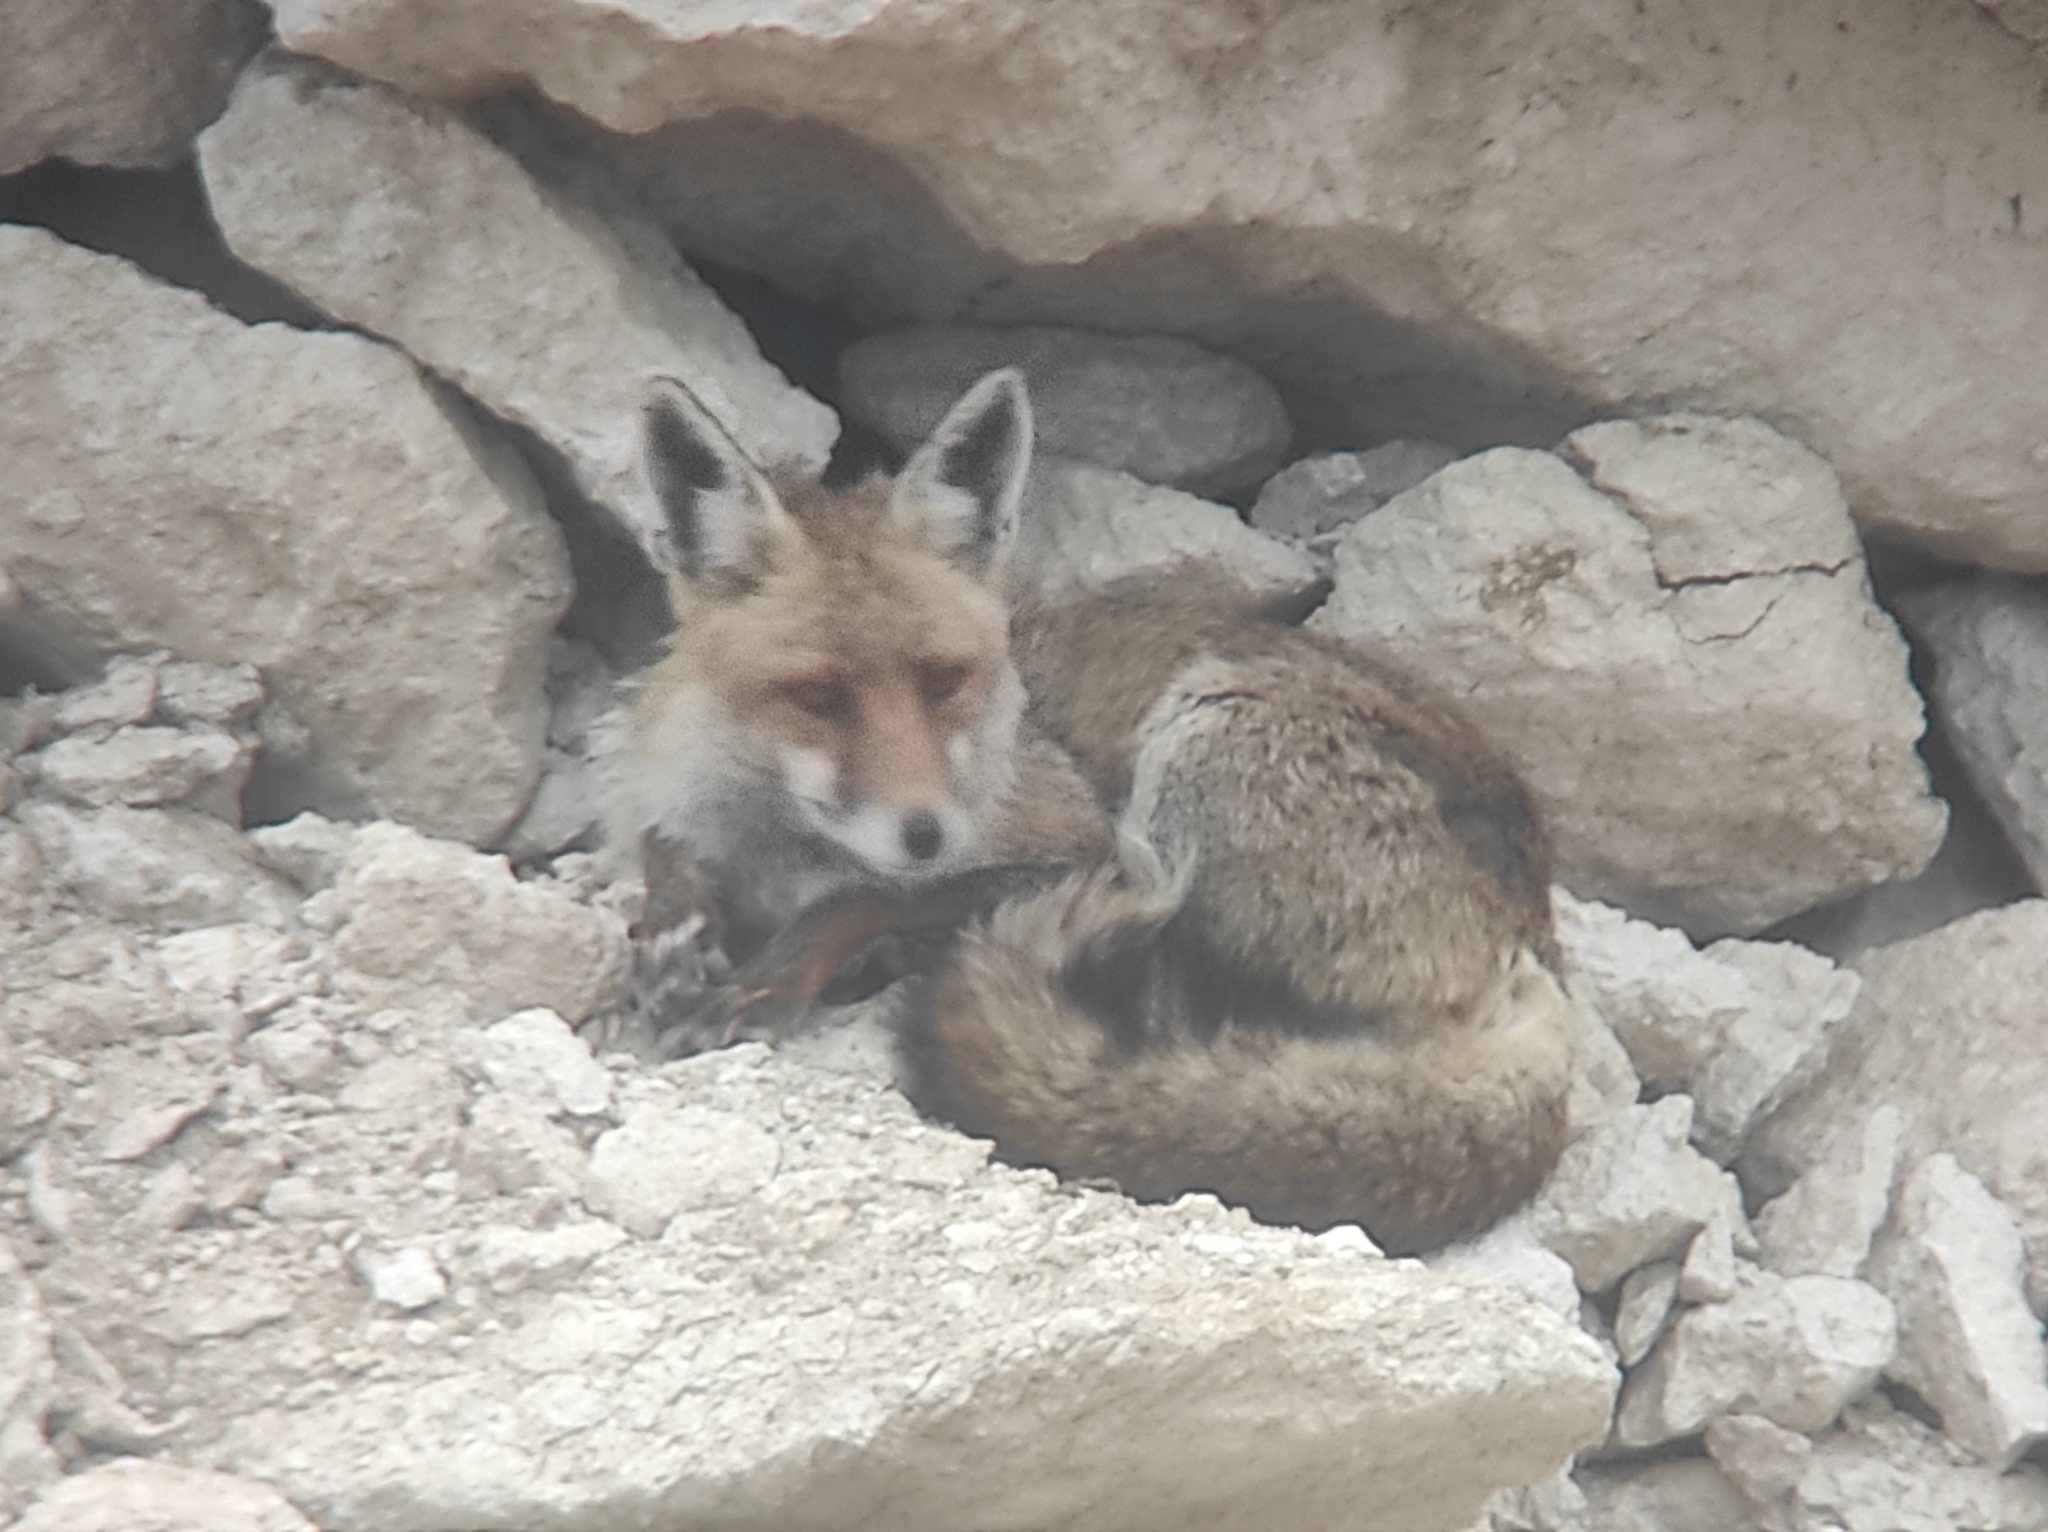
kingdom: Animalia
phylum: Chordata
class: Mammalia
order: Carnivora
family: Canidae
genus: Vulpes
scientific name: Vulpes vulpes
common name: Red fox
